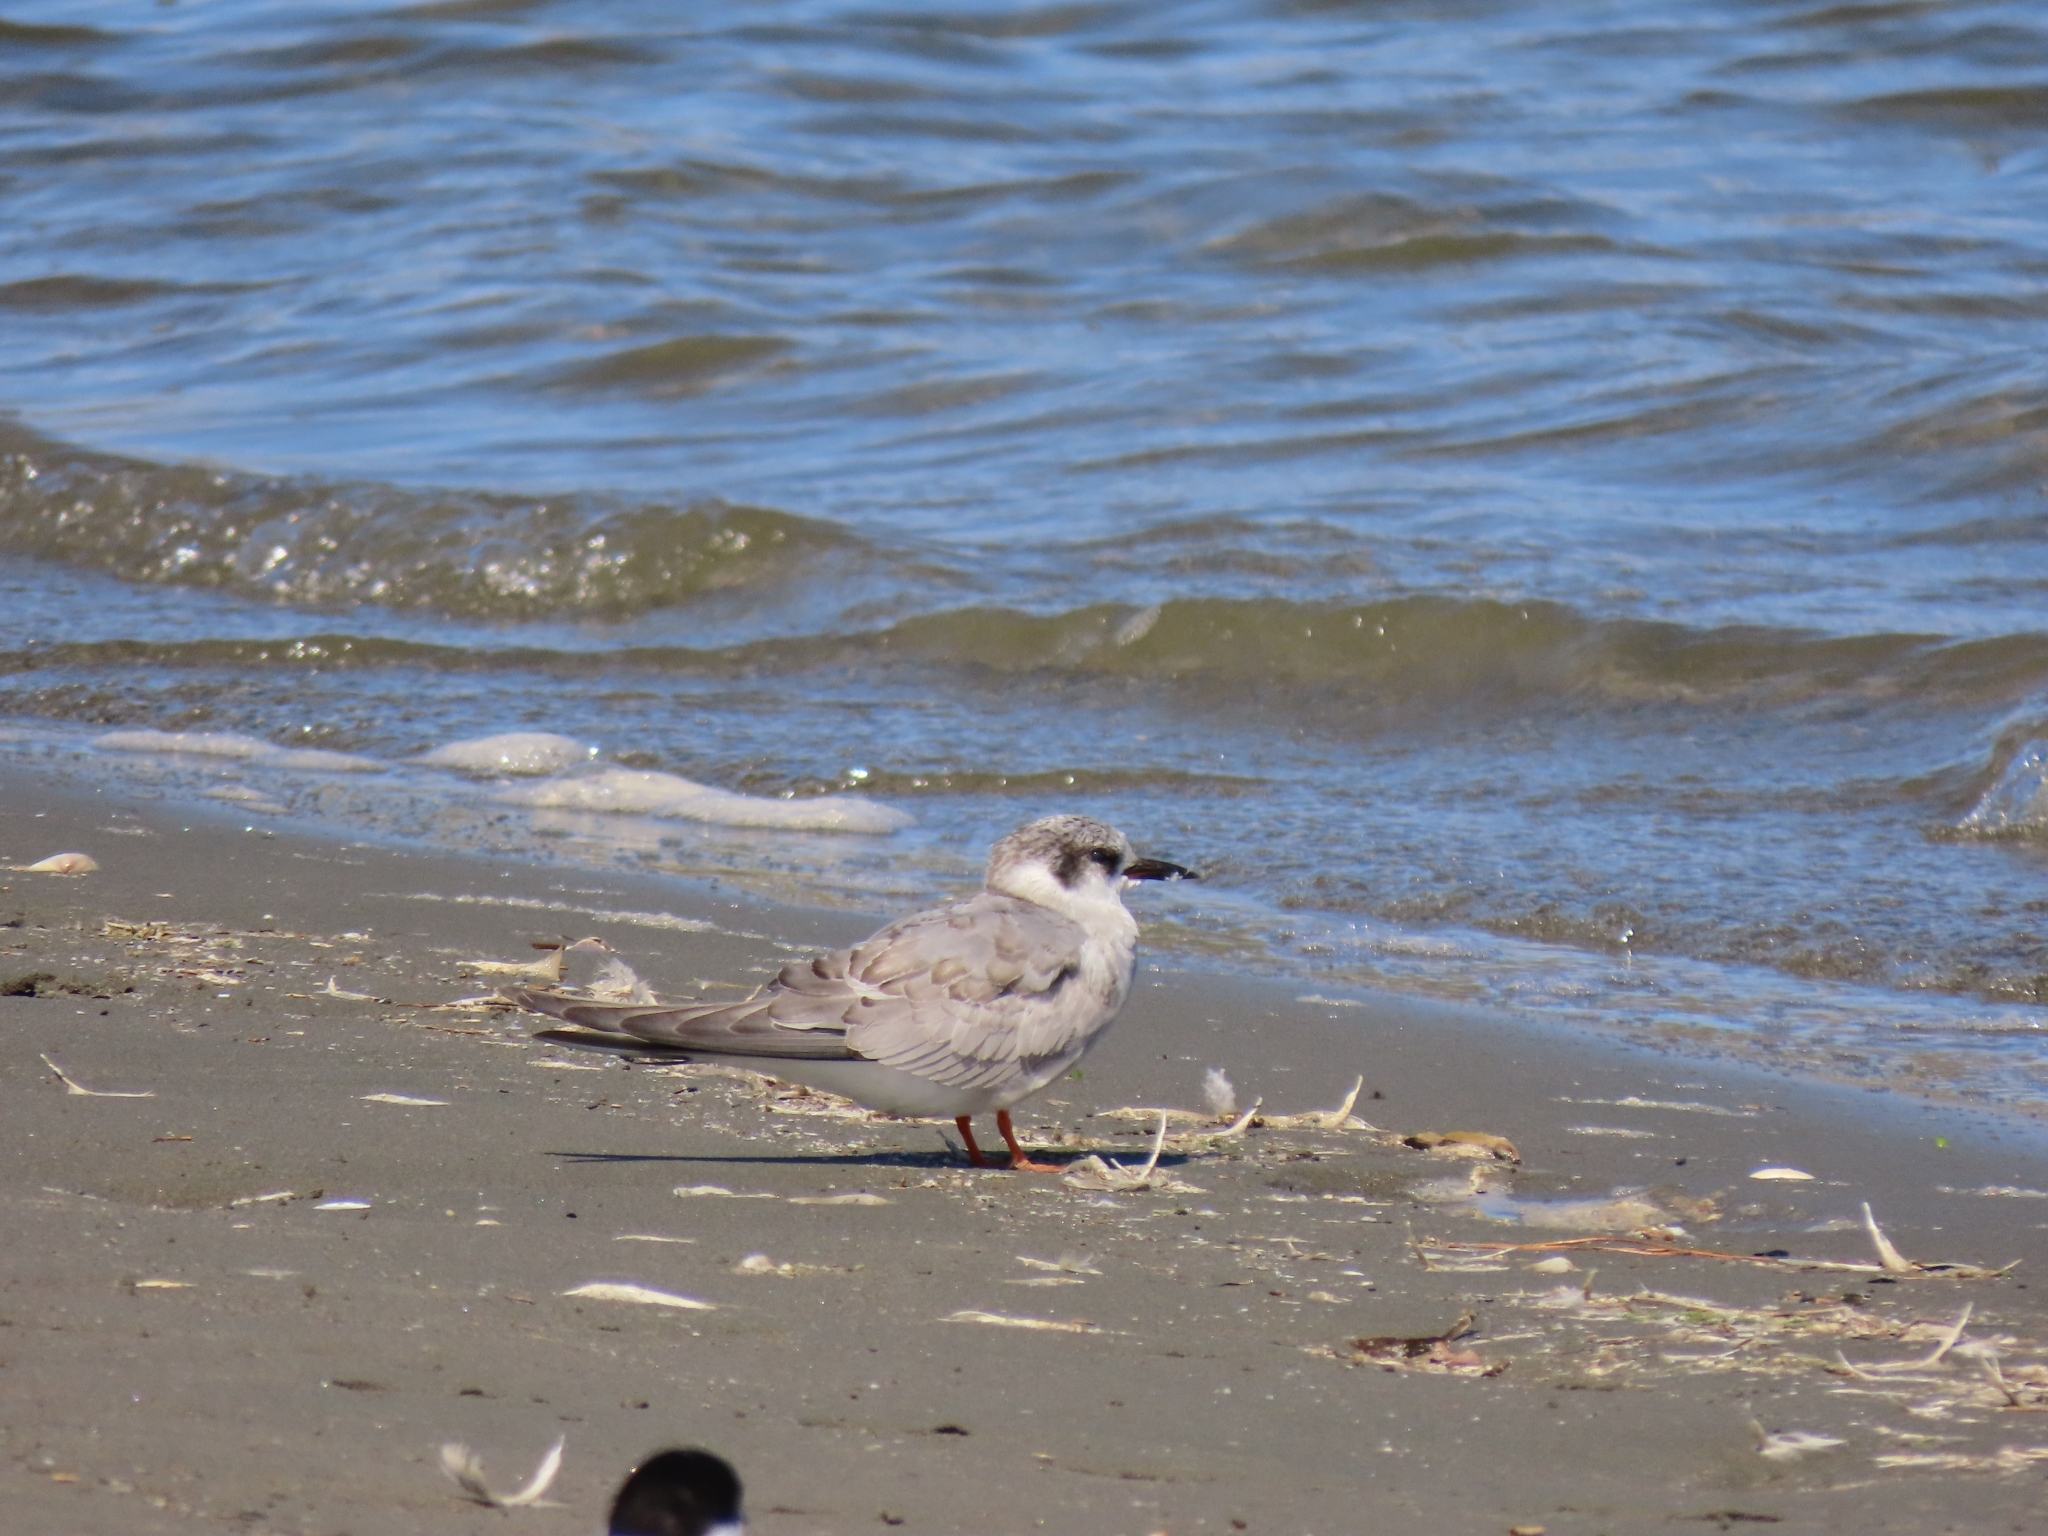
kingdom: Animalia
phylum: Chordata
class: Aves
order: Charadriiformes
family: Laridae
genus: Chlidonias
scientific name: Chlidonias albostriatus
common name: Black-fronted tern
